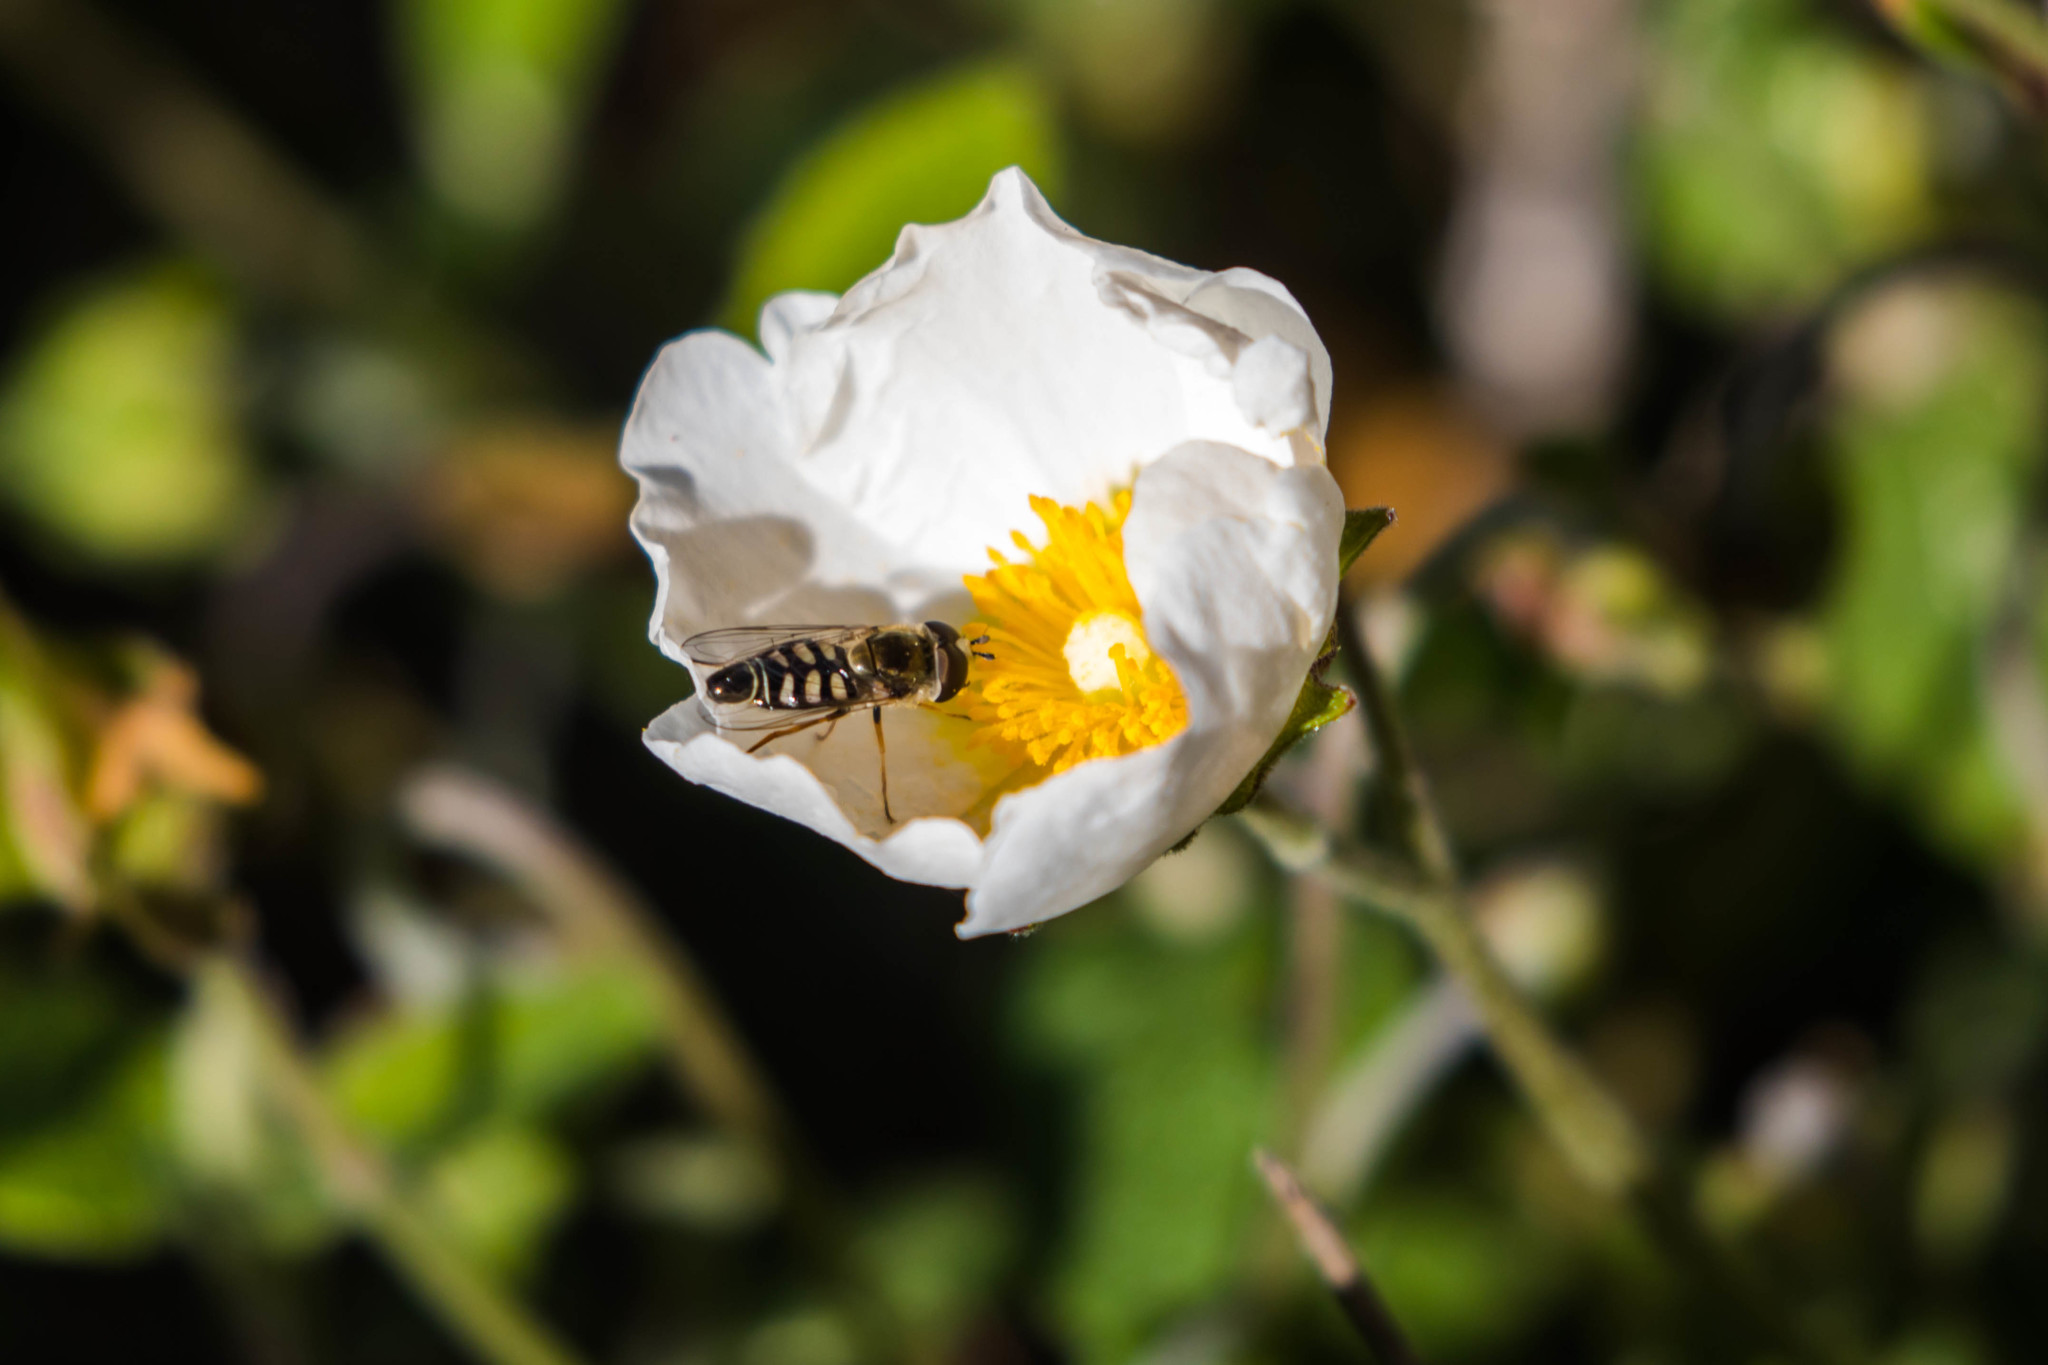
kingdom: Animalia
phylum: Arthropoda
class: Insecta
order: Diptera
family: Syrphidae
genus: Eupeodes
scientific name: Eupeodes volucris
